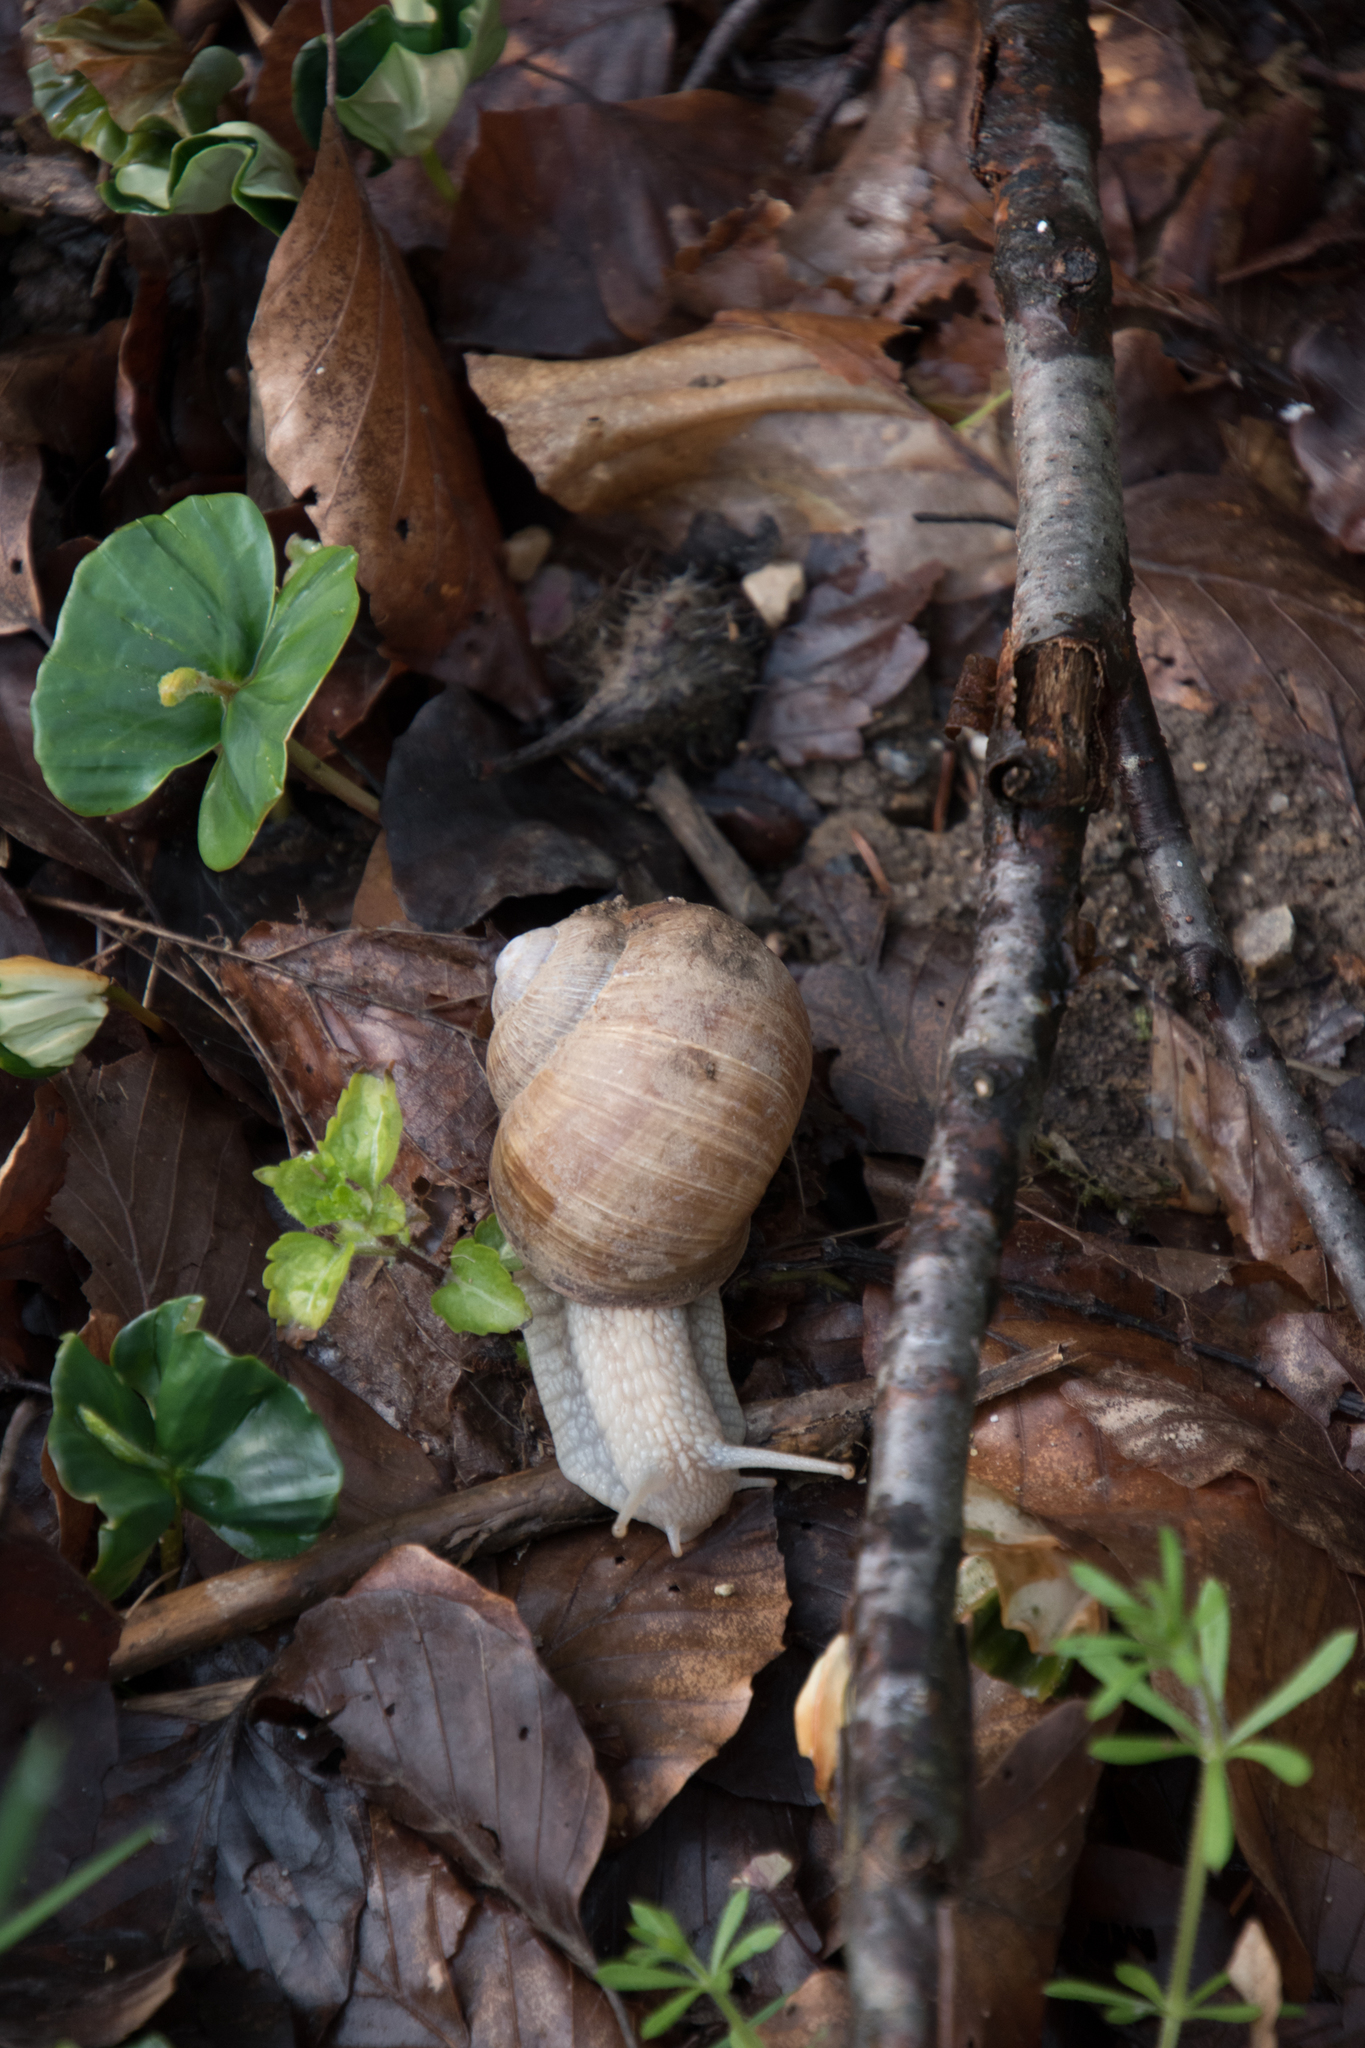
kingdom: Animalia
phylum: Mollusca
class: Gastropoda
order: Stylommatophora
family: Helicidae
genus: Helix
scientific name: Helix pomatia
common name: Roman snail
